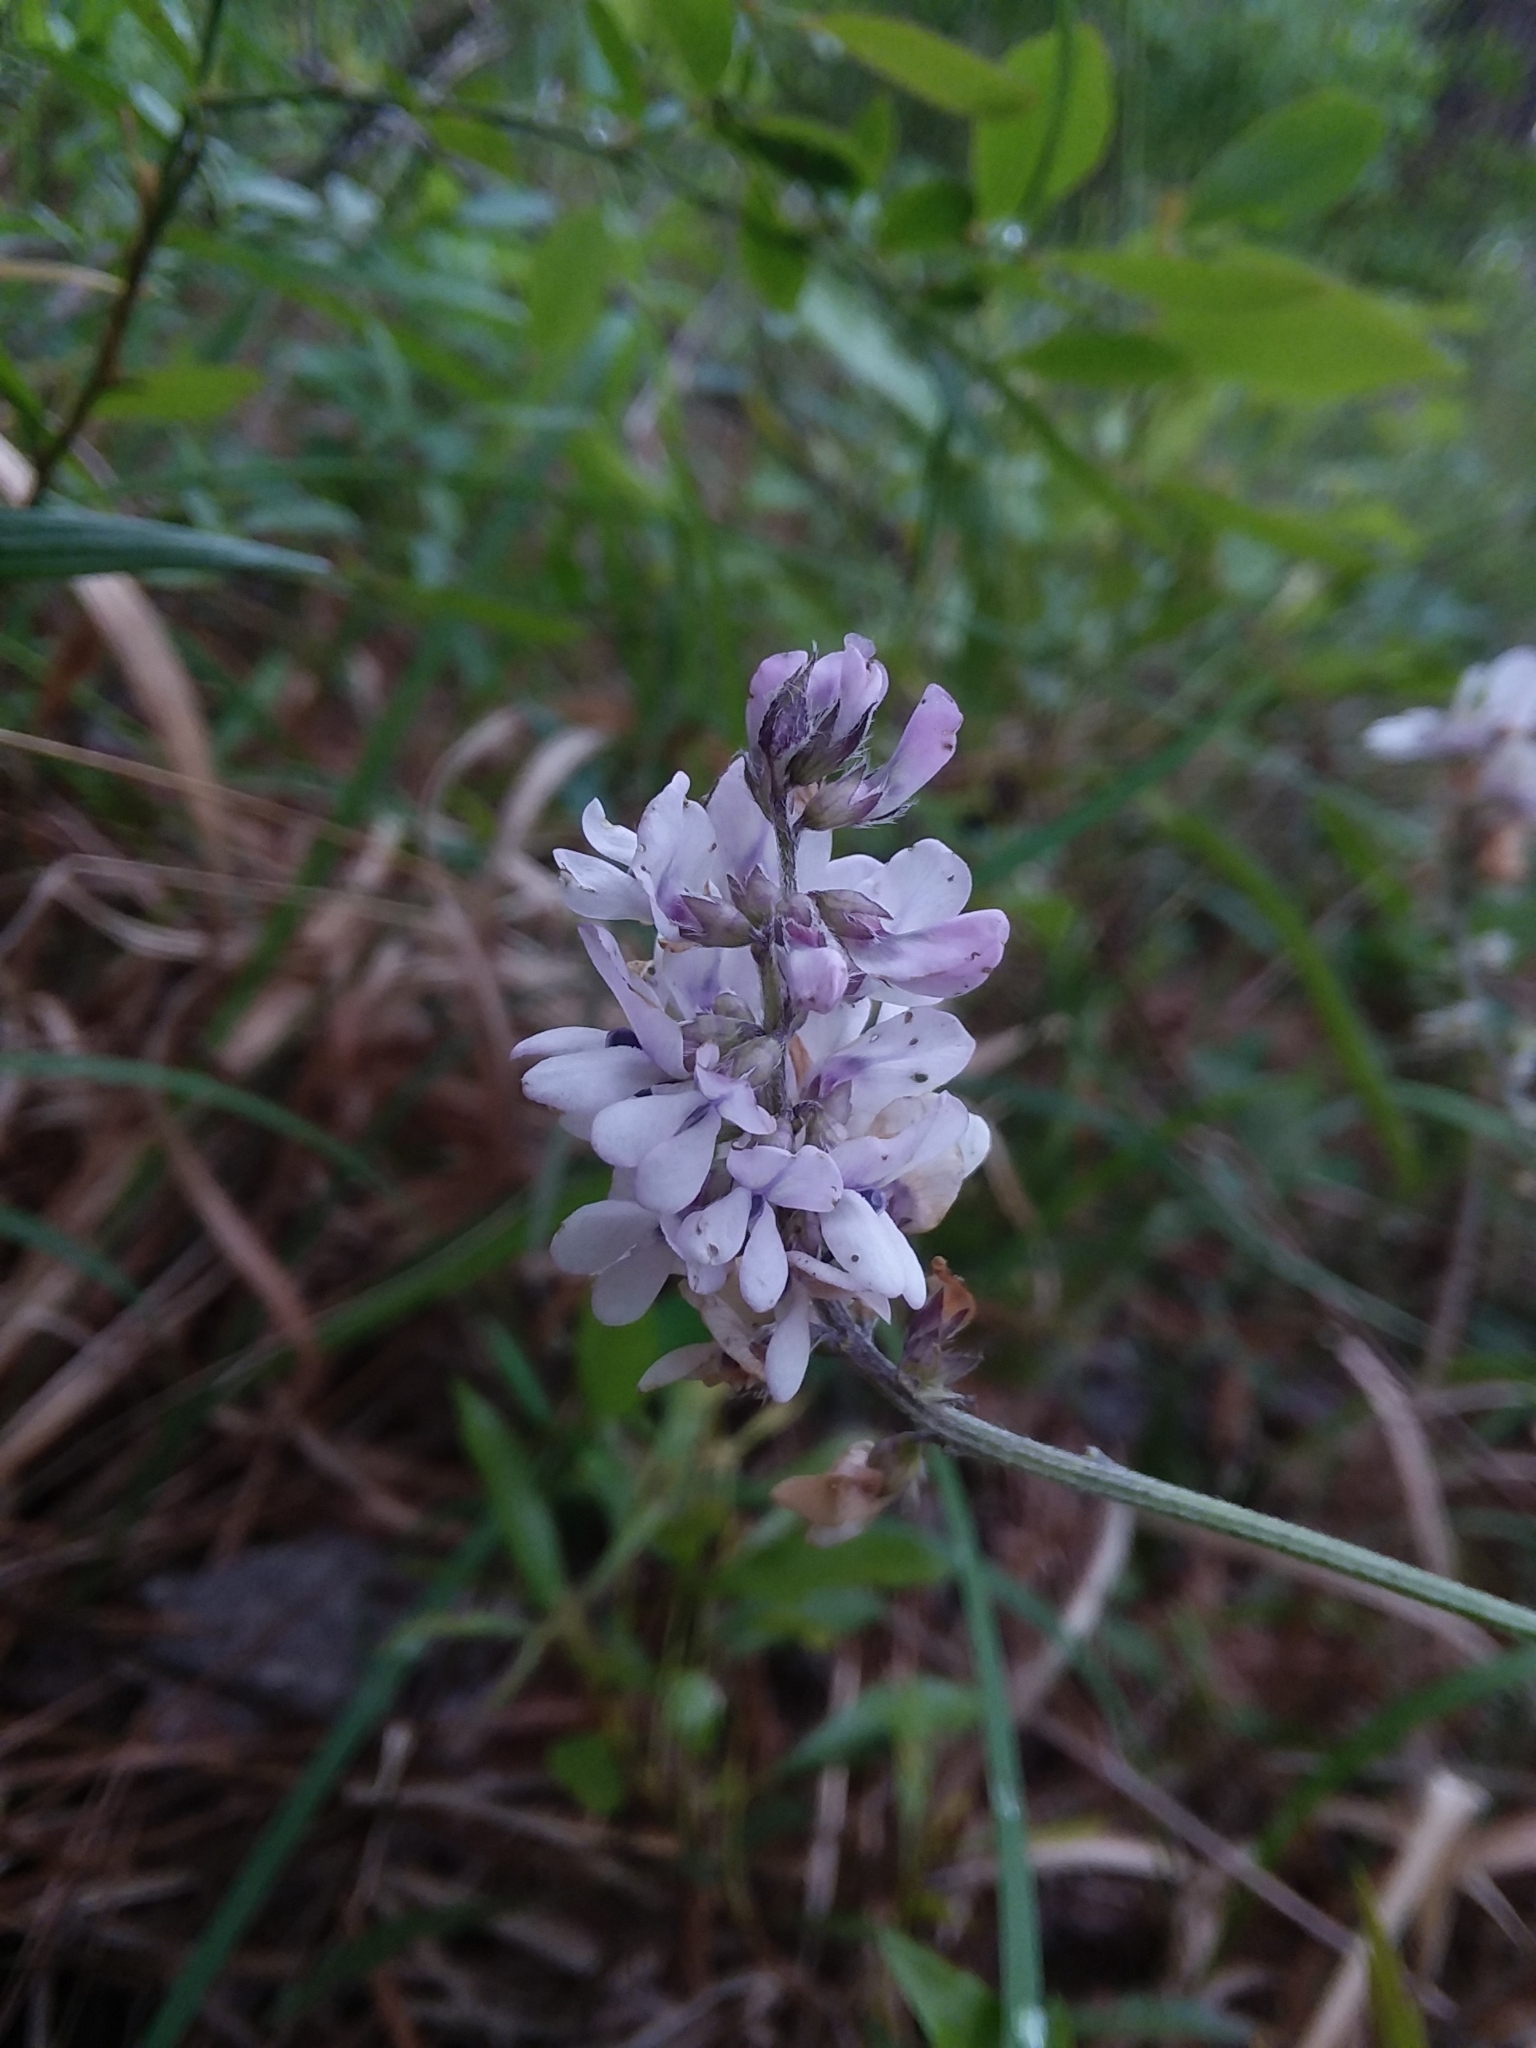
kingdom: Plantae
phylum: Tracheophyta
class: Magnoliopsida
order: Fabales
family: Fabaceae
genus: Orbexilum
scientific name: Orbexilum pedunculatum
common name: Sampson's snakeroot
